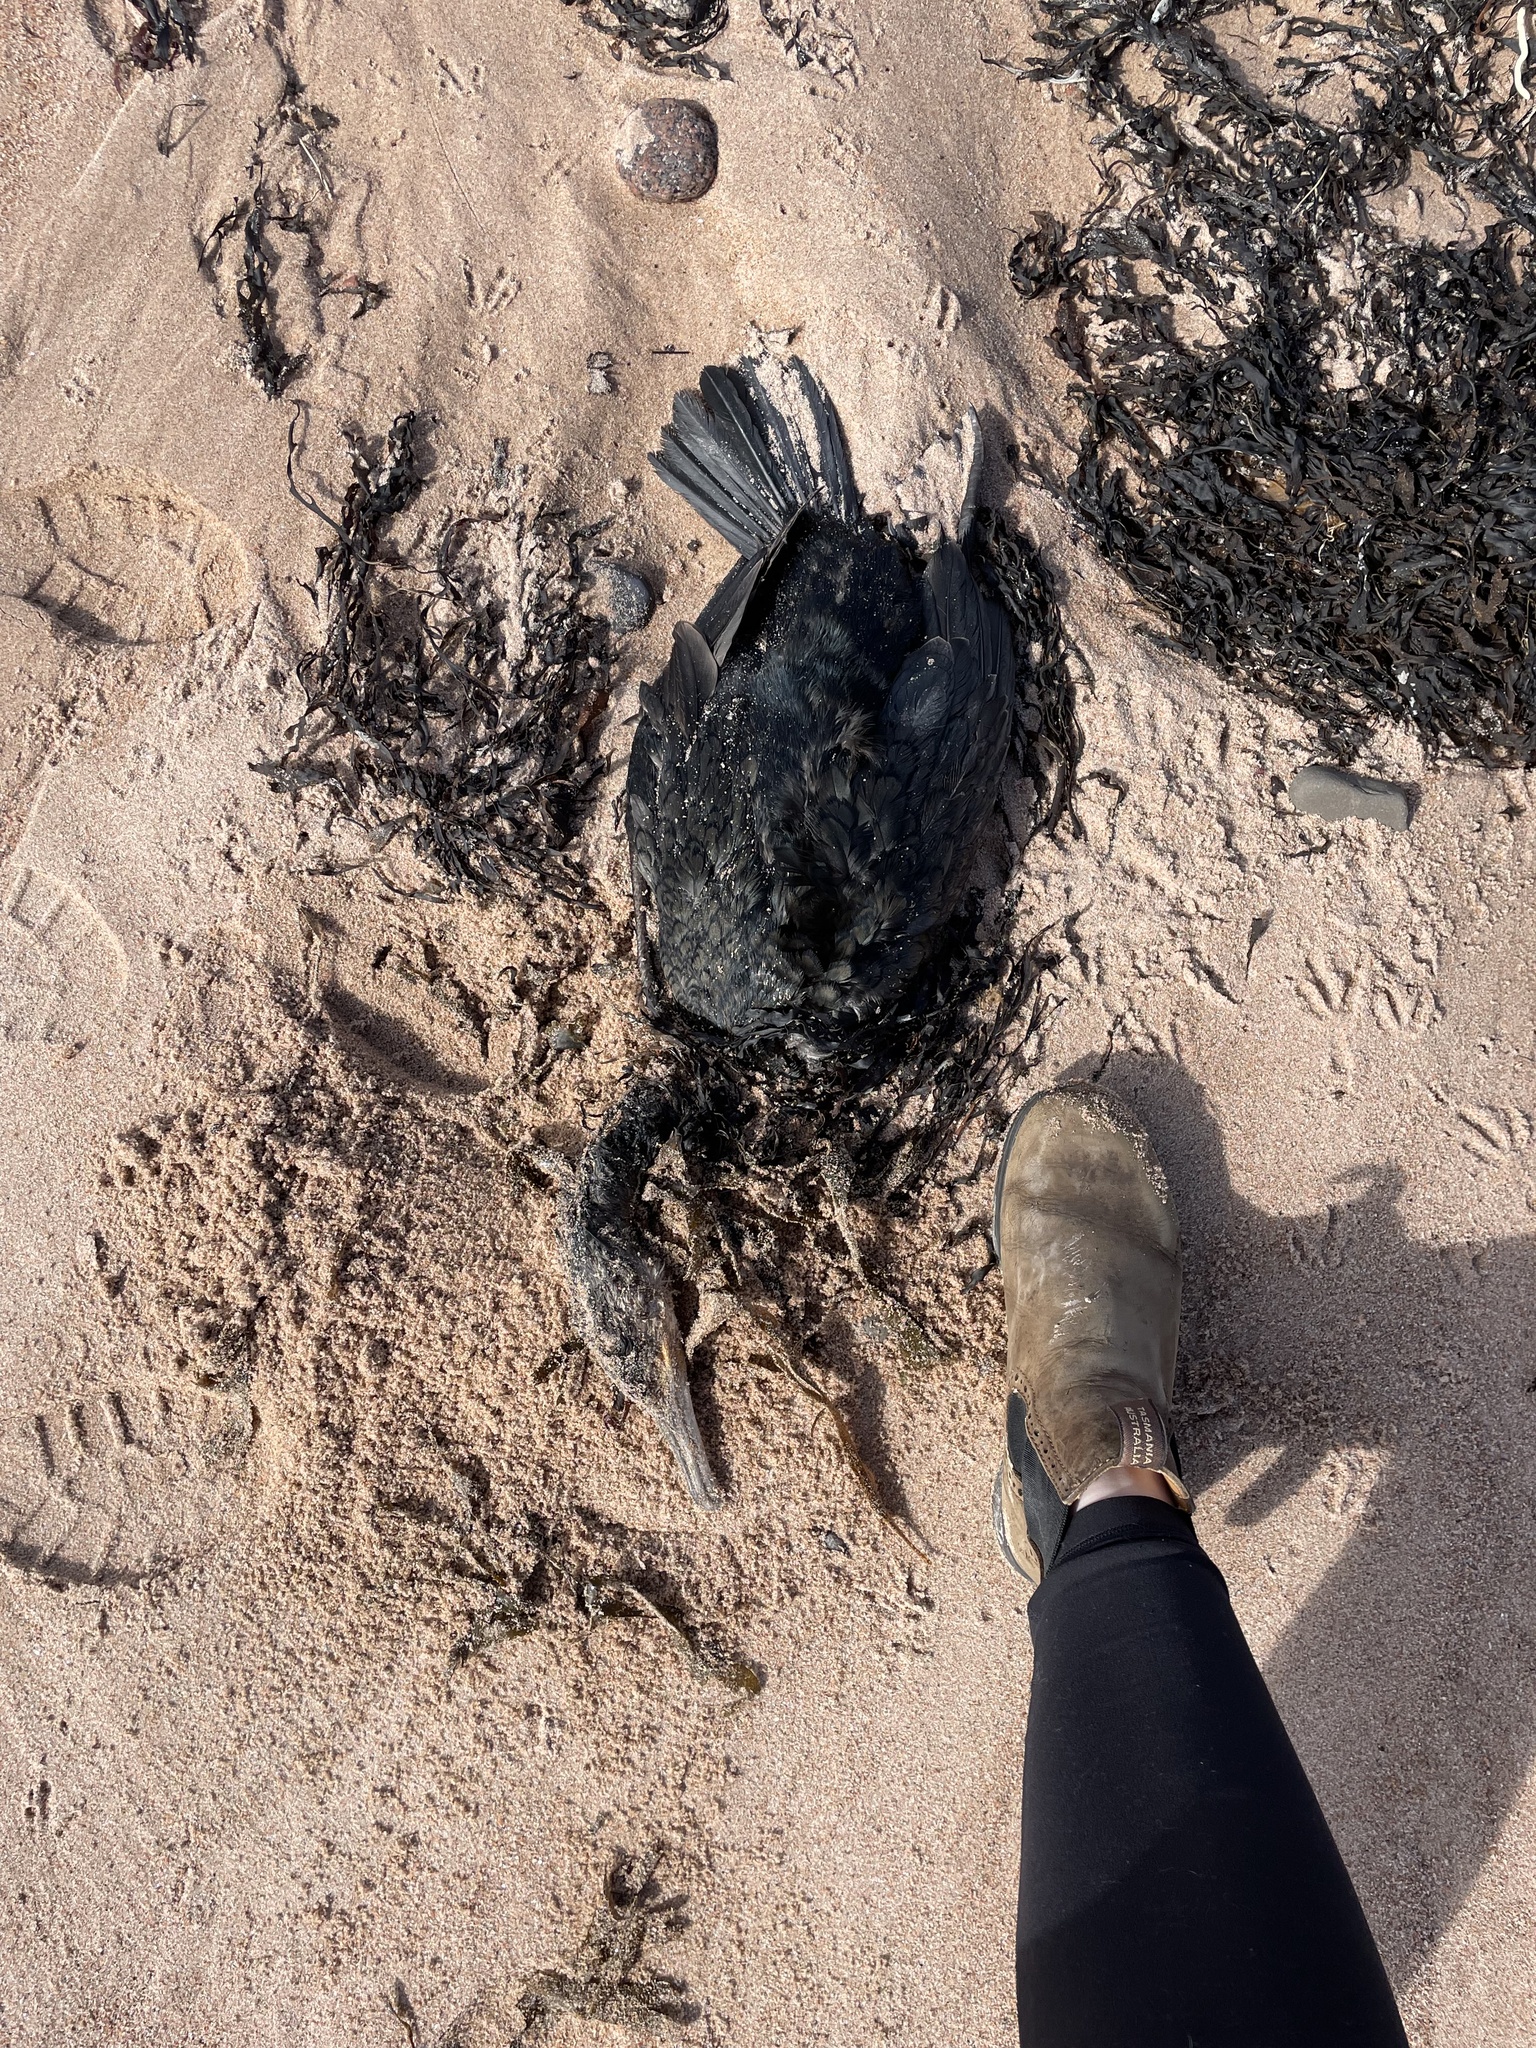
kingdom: Animalia
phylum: Chordata
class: Aves
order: Suliformes
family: Phalacrocoracidae
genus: Phalacrocorax
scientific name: Phalacrocorax auritus
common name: Double-crested cormorant
